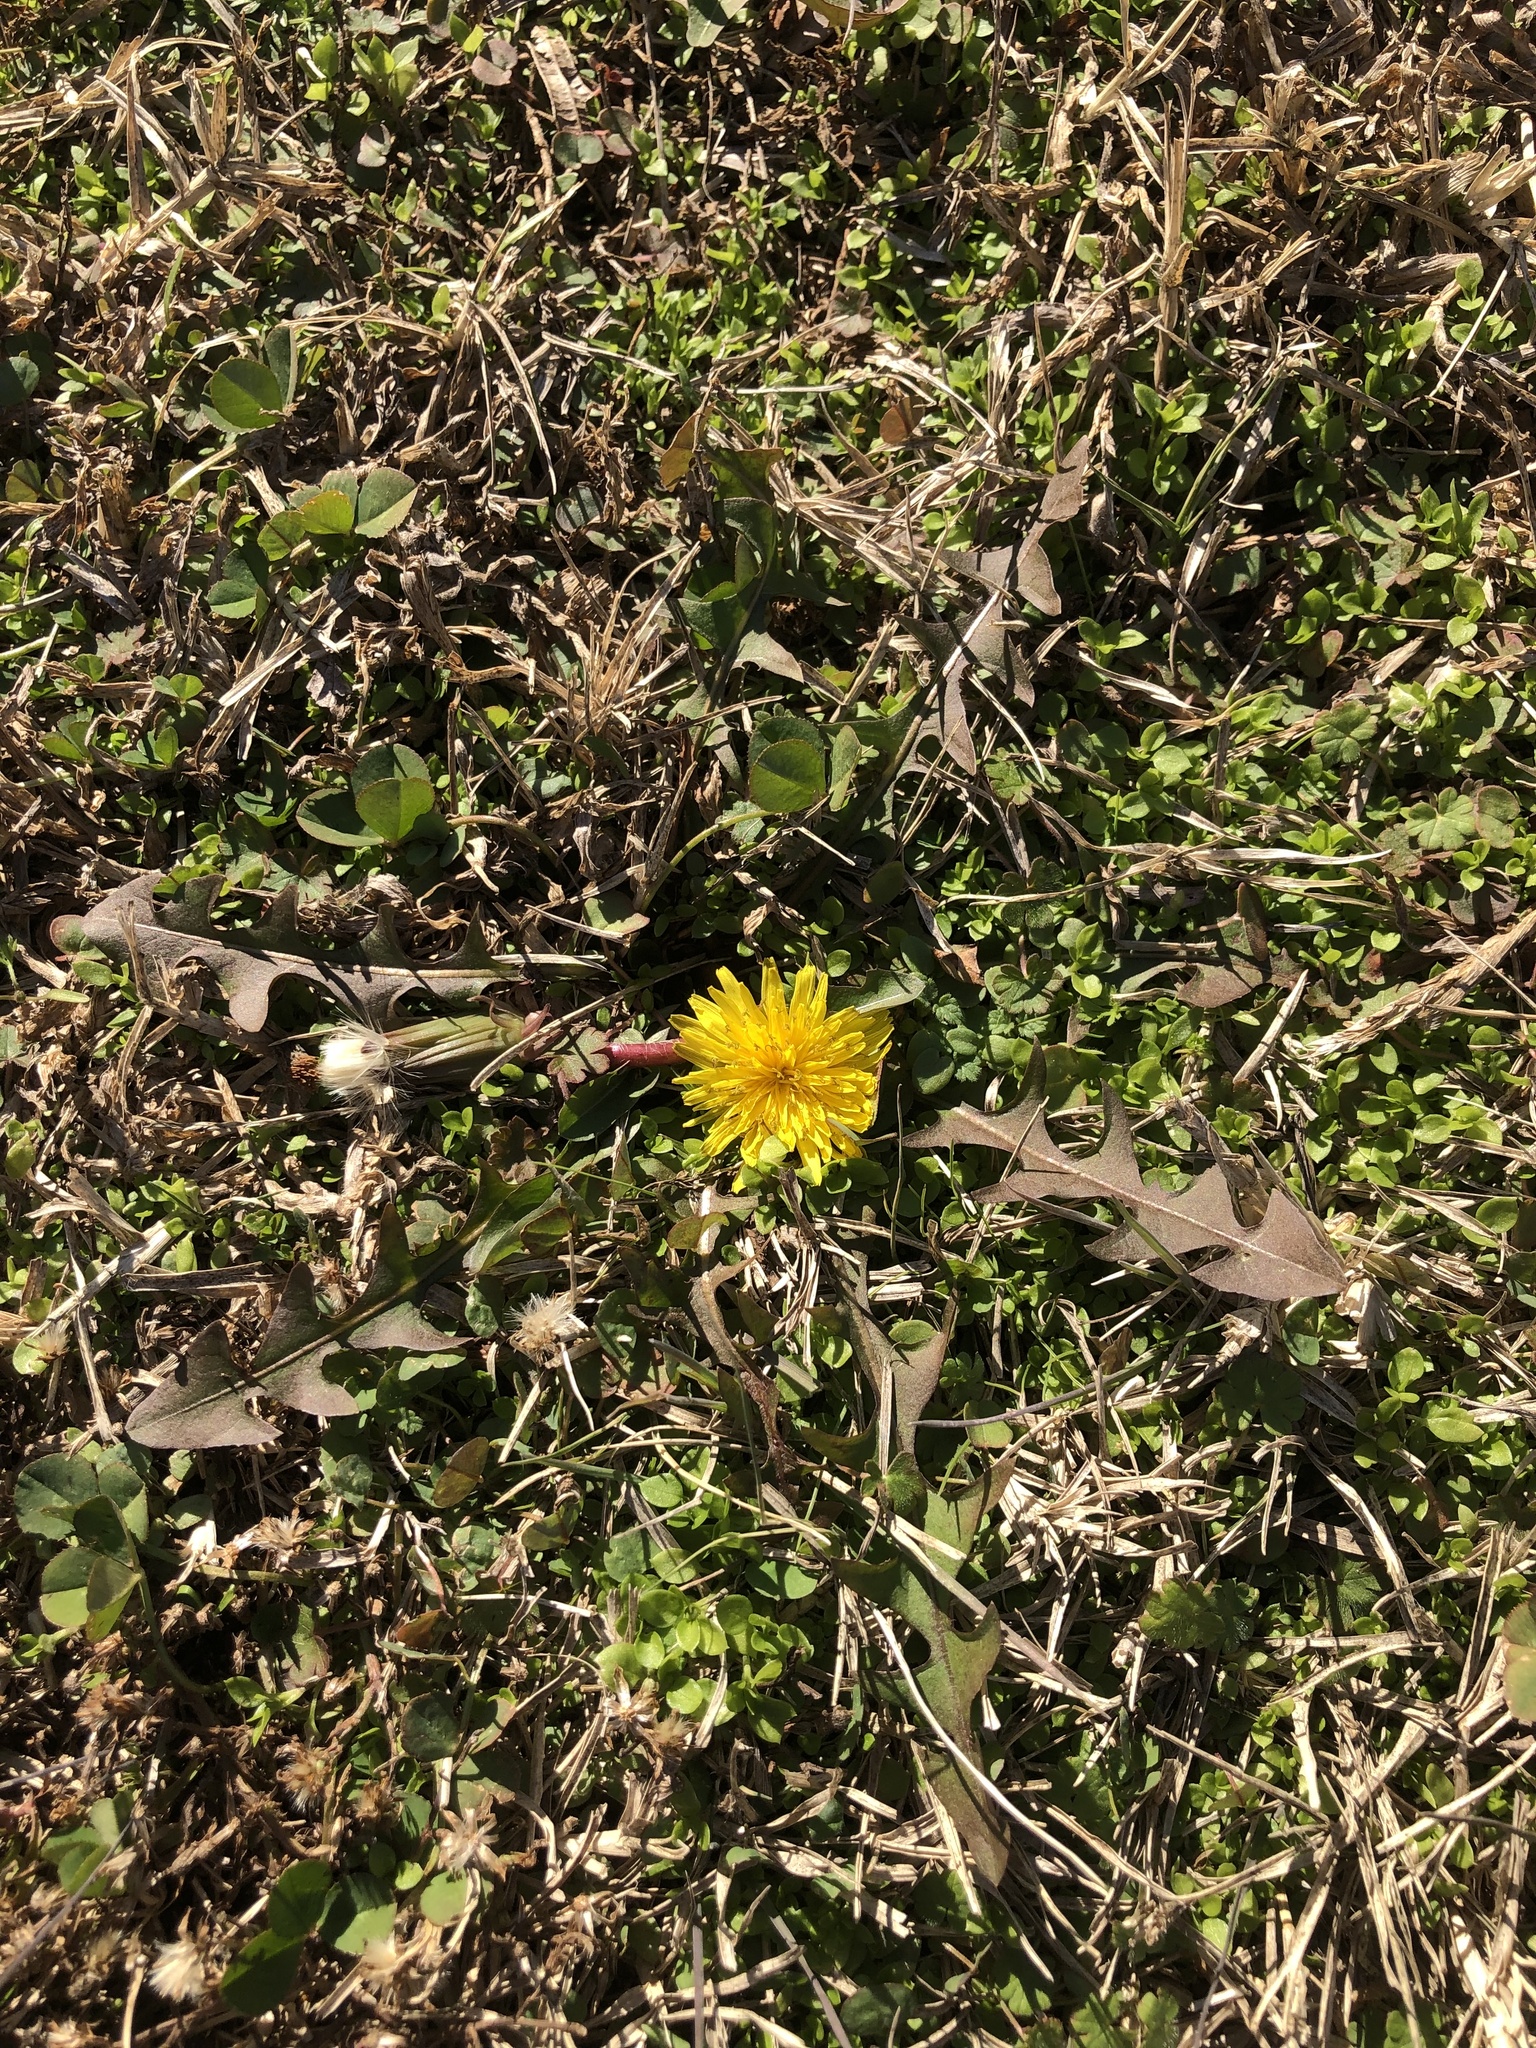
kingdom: Plantae
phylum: Tracheophyta
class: Magnoliopsida
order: Asterales
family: Asteraceae
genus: Taraxacum
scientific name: Taraxacum
